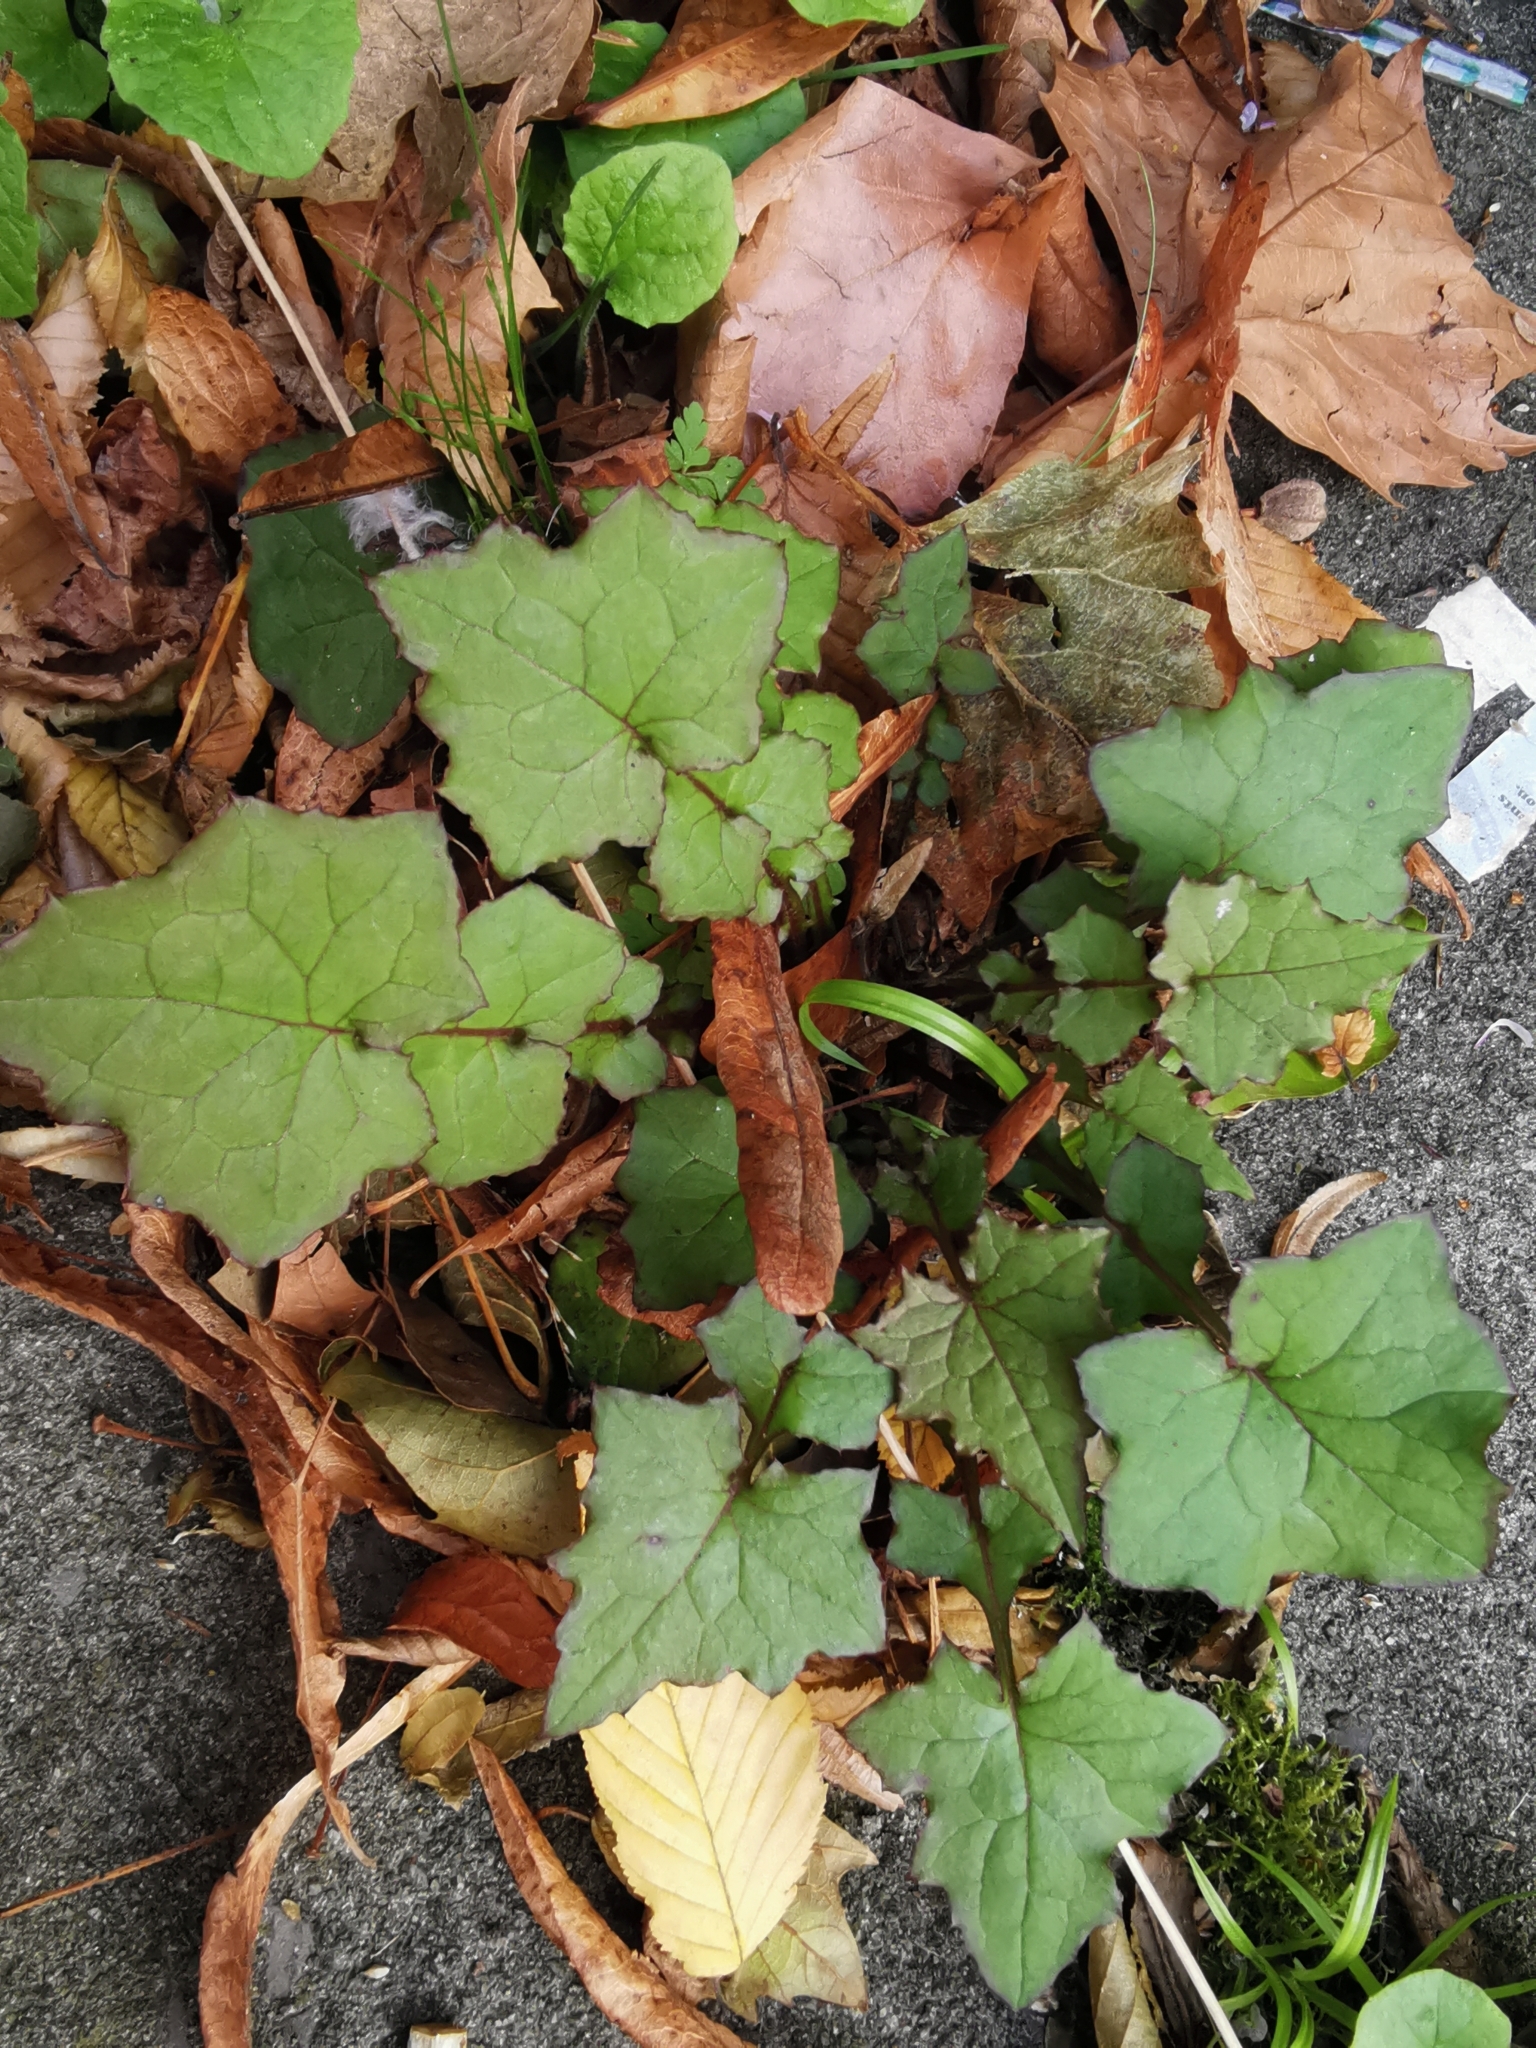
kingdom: Plantae
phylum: Tracheophyta
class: Magnoliopsida
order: Asterales
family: Asteraceae
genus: Mycelis
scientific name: Mycelis muralis
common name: Wall lettuce
